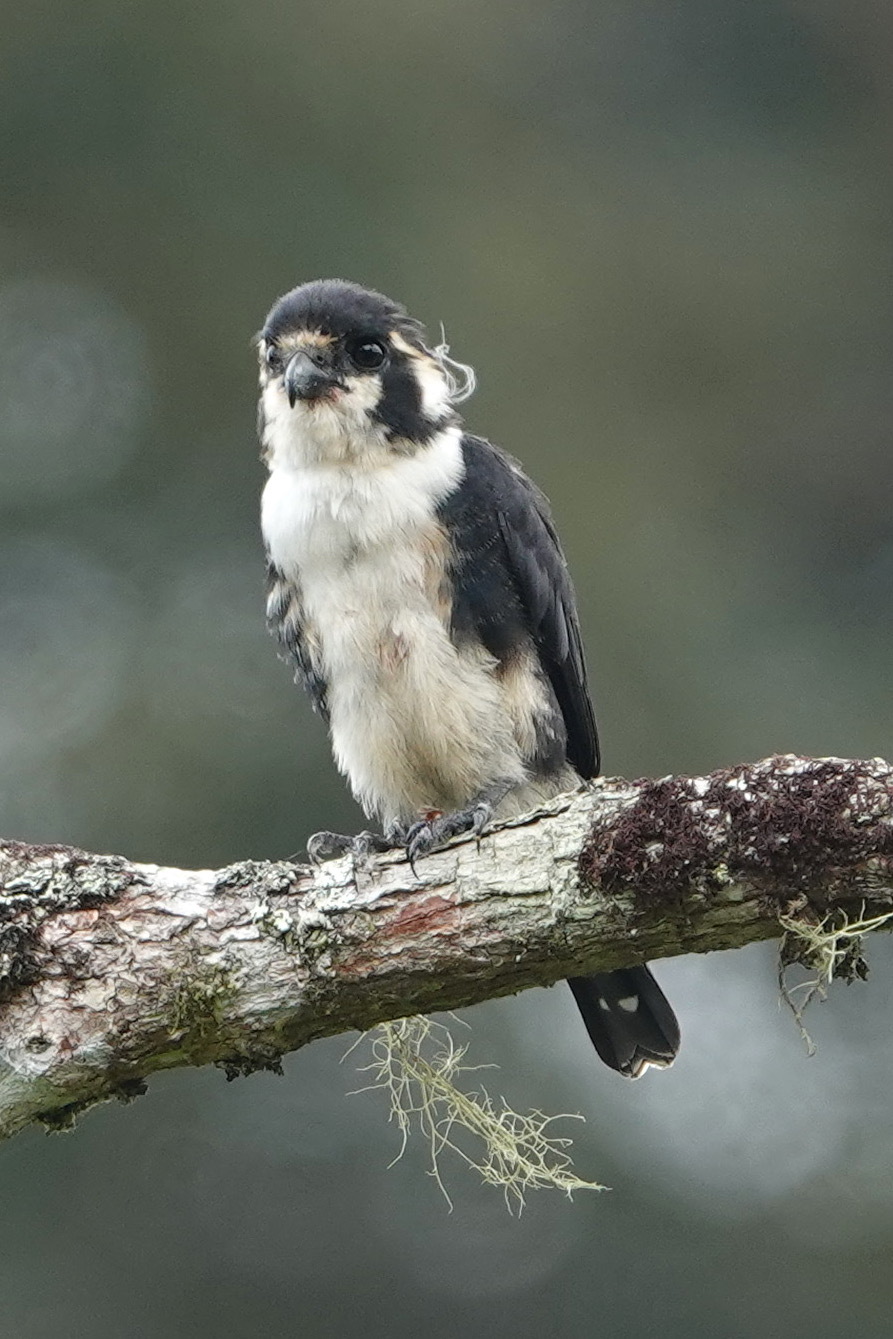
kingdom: Animalia
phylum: Chordata
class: Aves
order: Falconiformes
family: Falconidae
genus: Microhierax
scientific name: Microhierax fringillarius
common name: Black-thighed falconet
